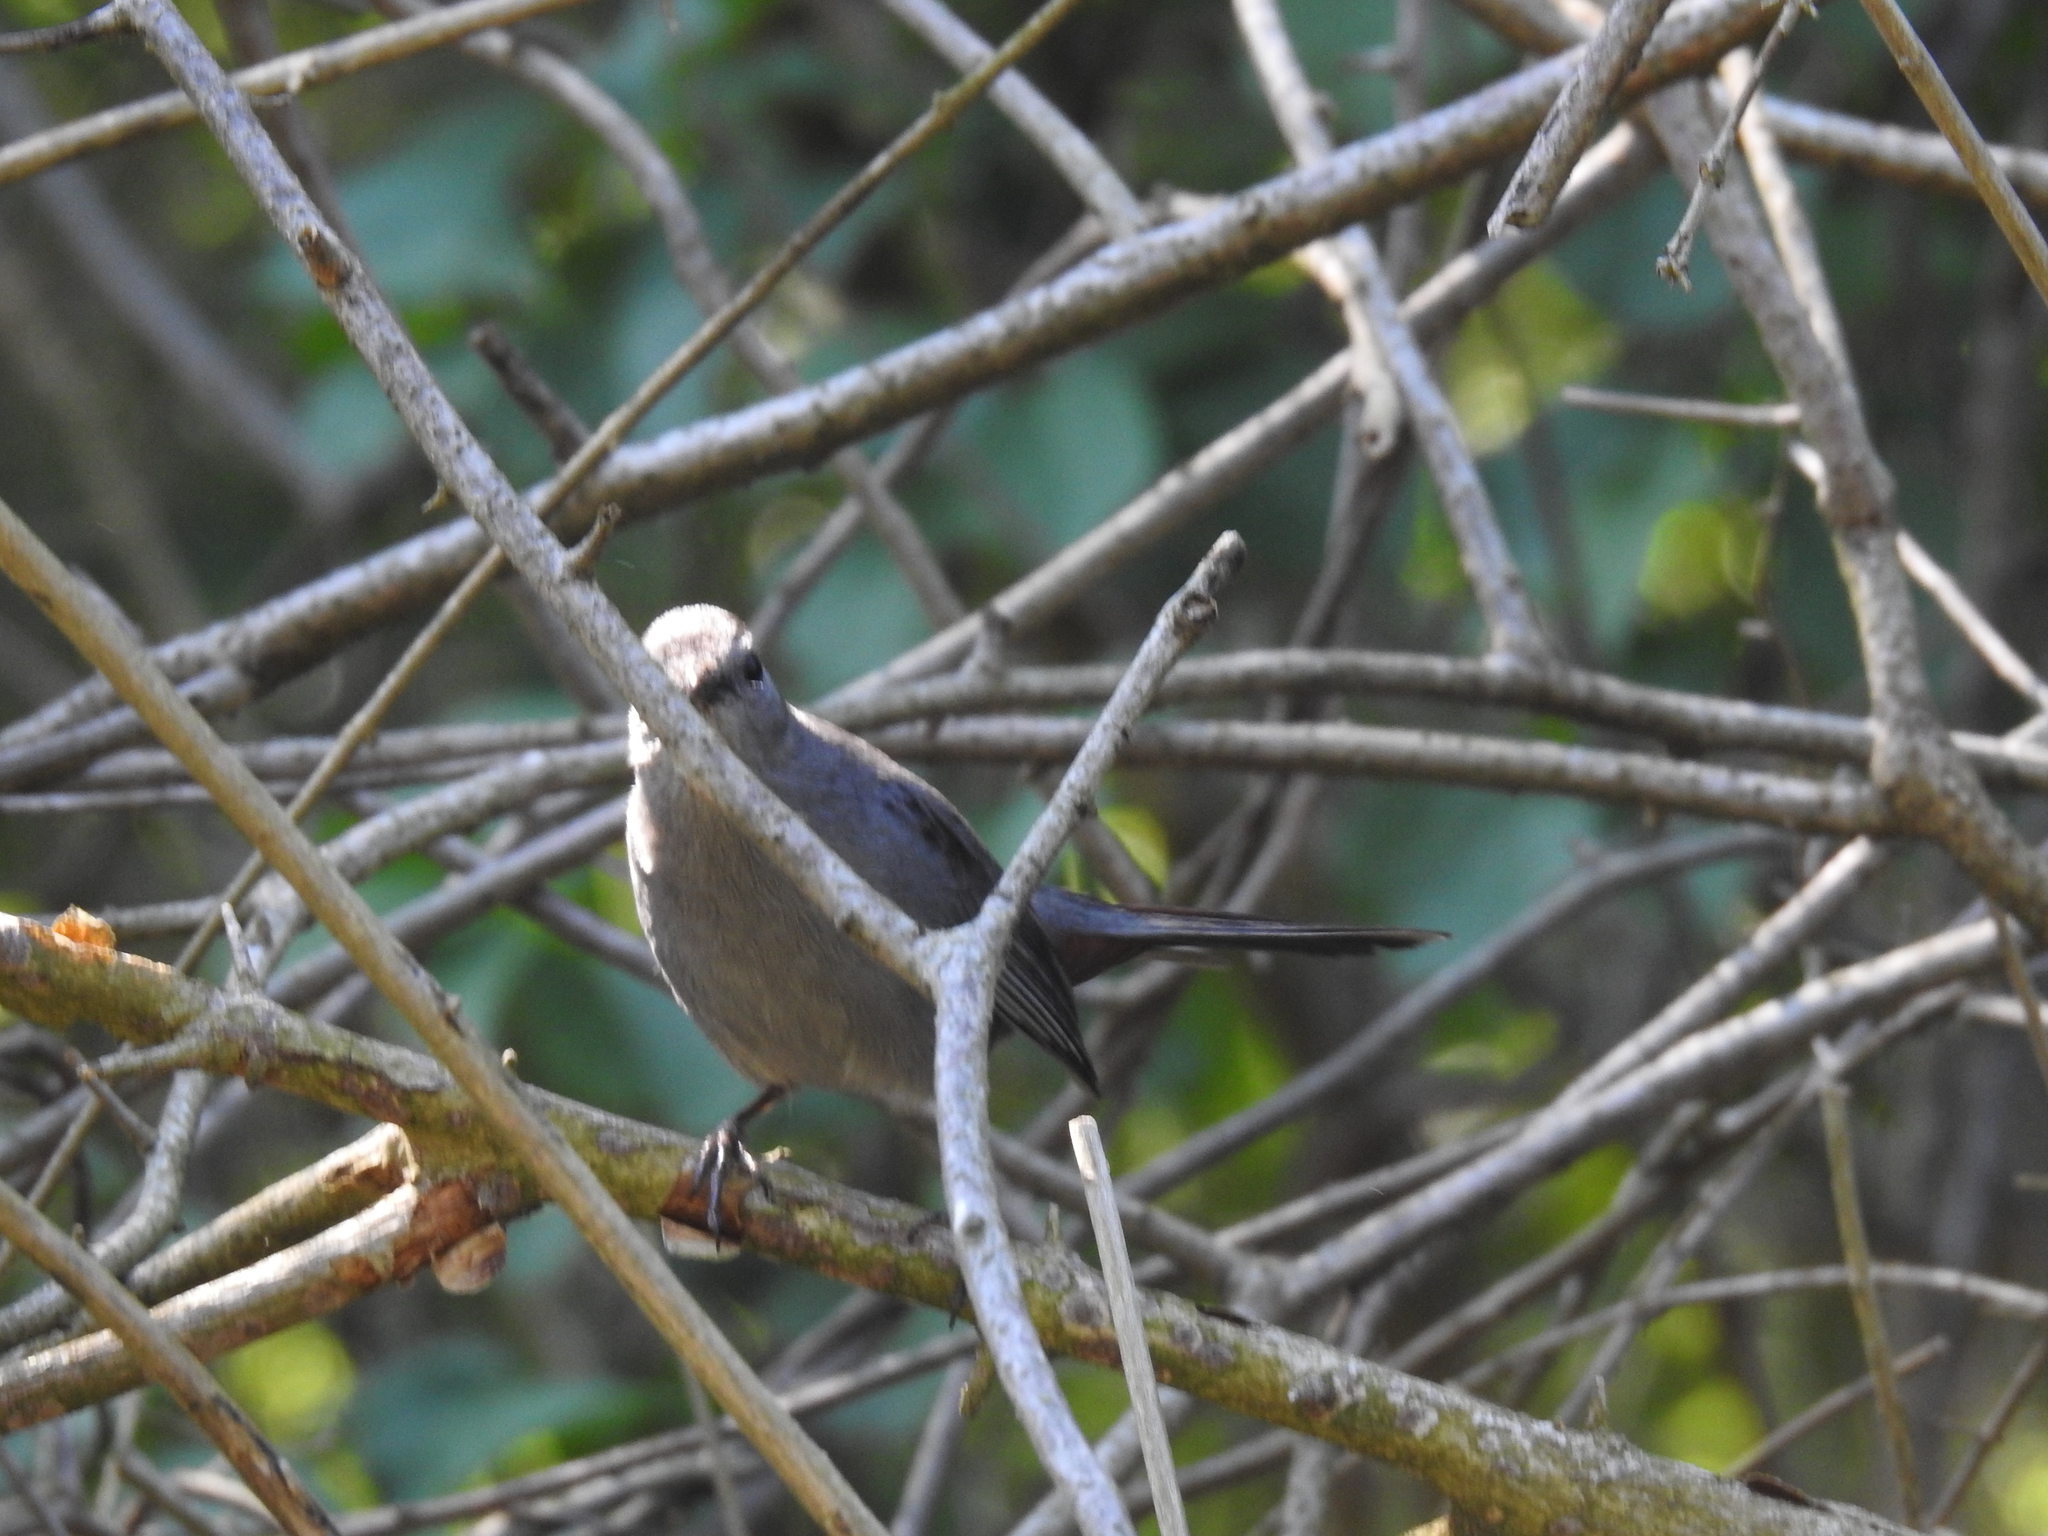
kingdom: Animalia
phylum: Chordata
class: Aves
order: Passeriformes
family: Mimidae
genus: Dumetella
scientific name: Dumetella carolinensis
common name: Gray catbird
